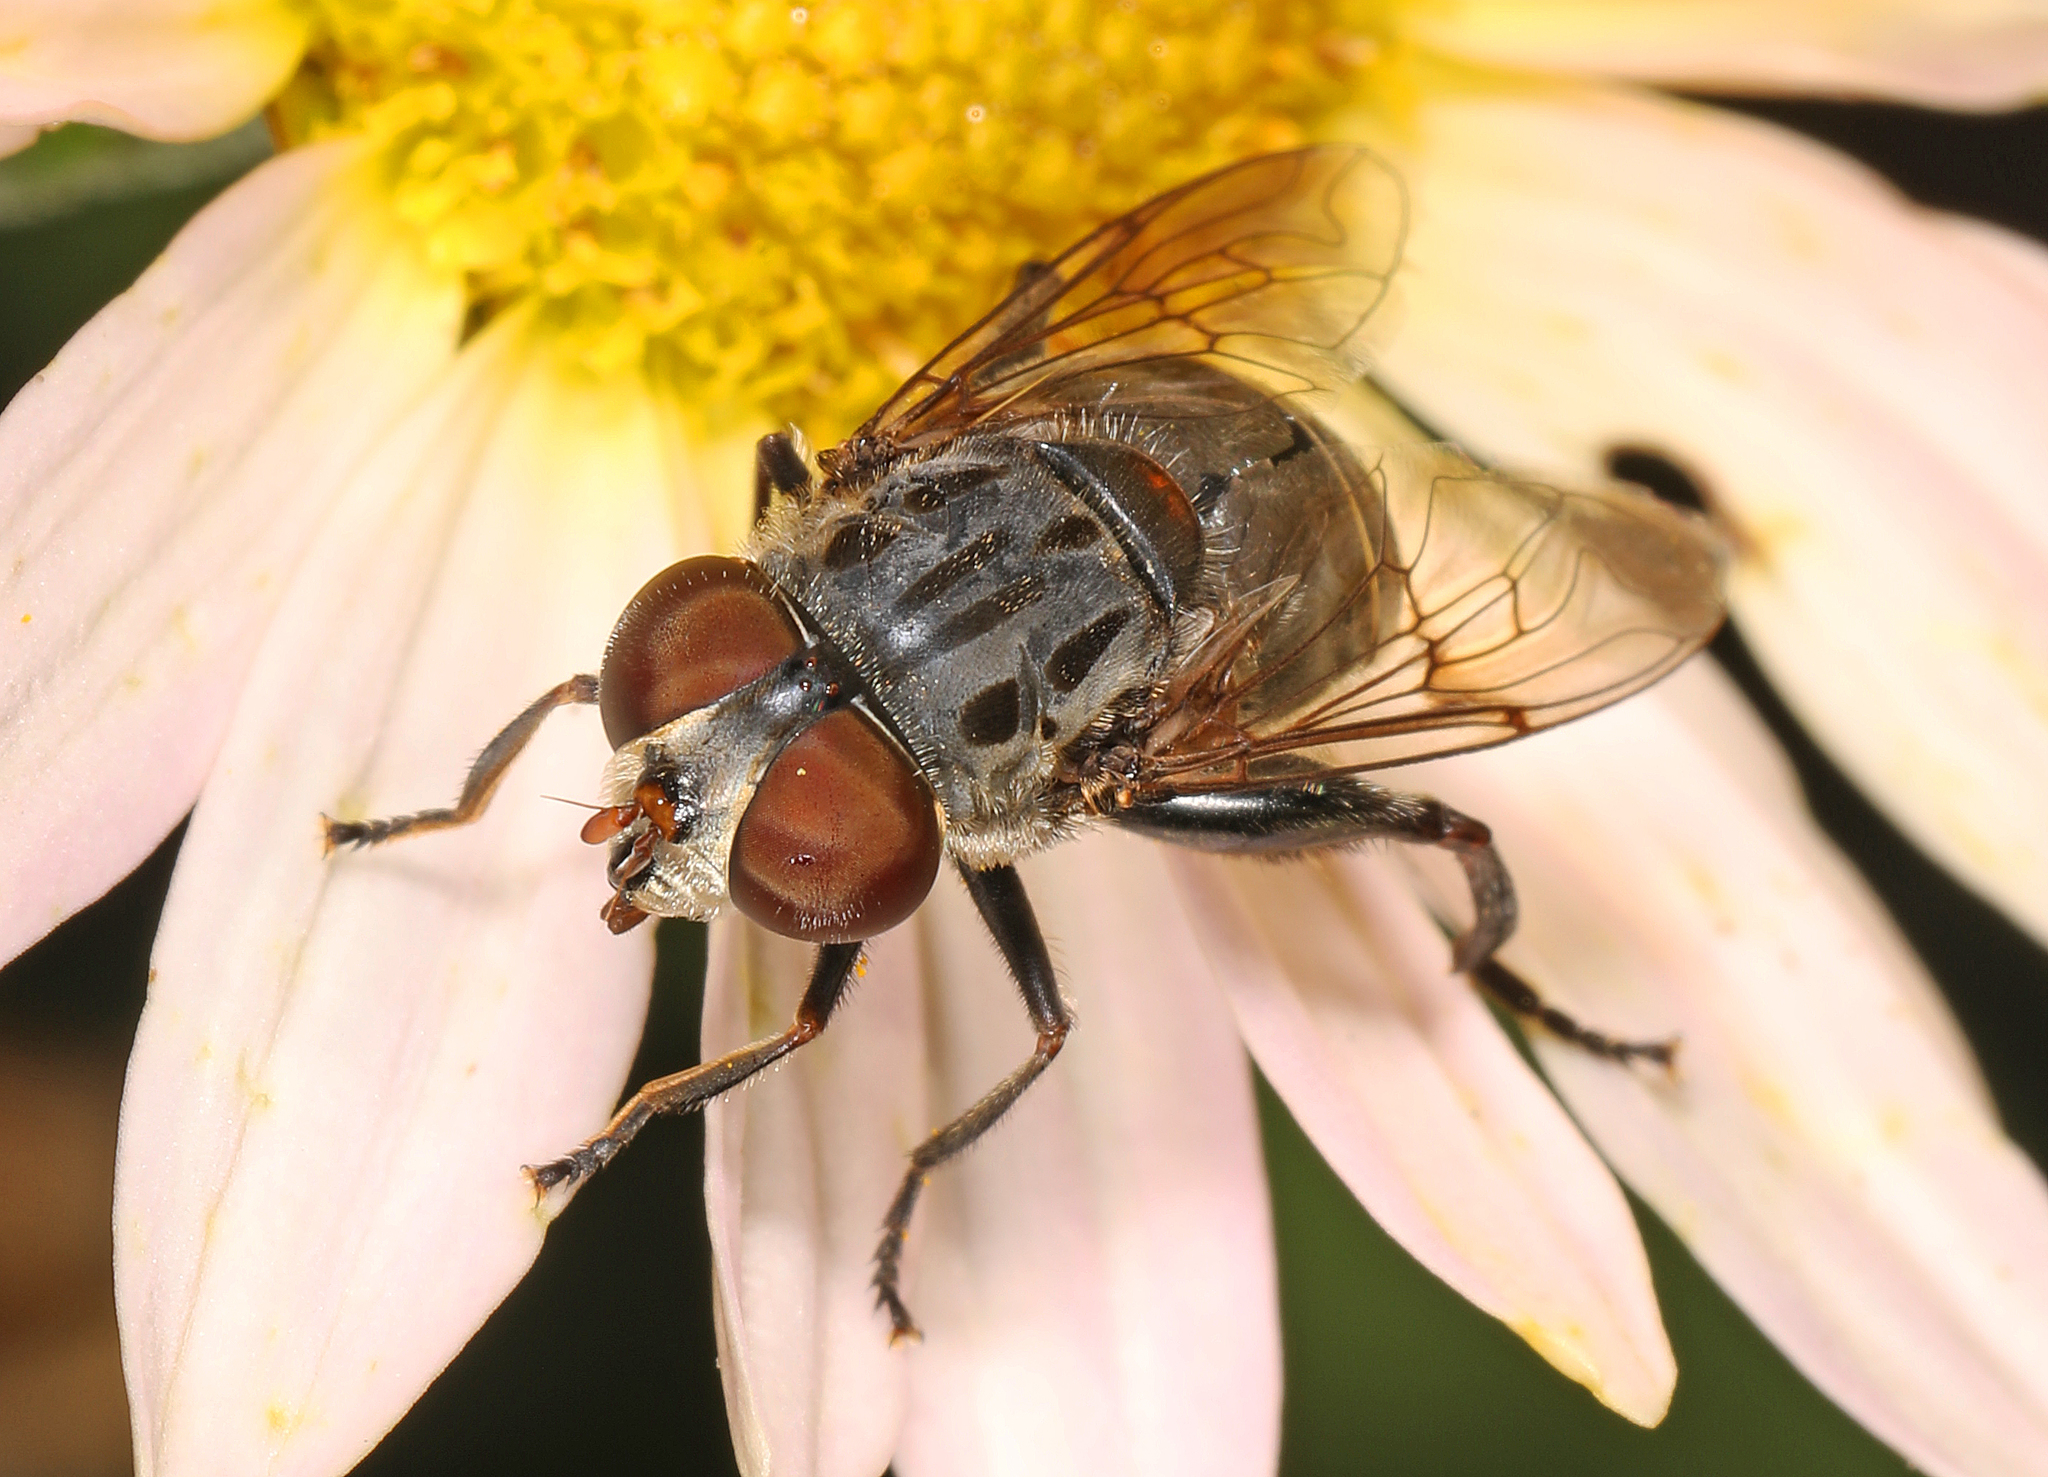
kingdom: Animalia
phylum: Arthropoda
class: Insecta
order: Diptera
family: Syrphidae
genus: Palpada
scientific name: Palpada furcata
